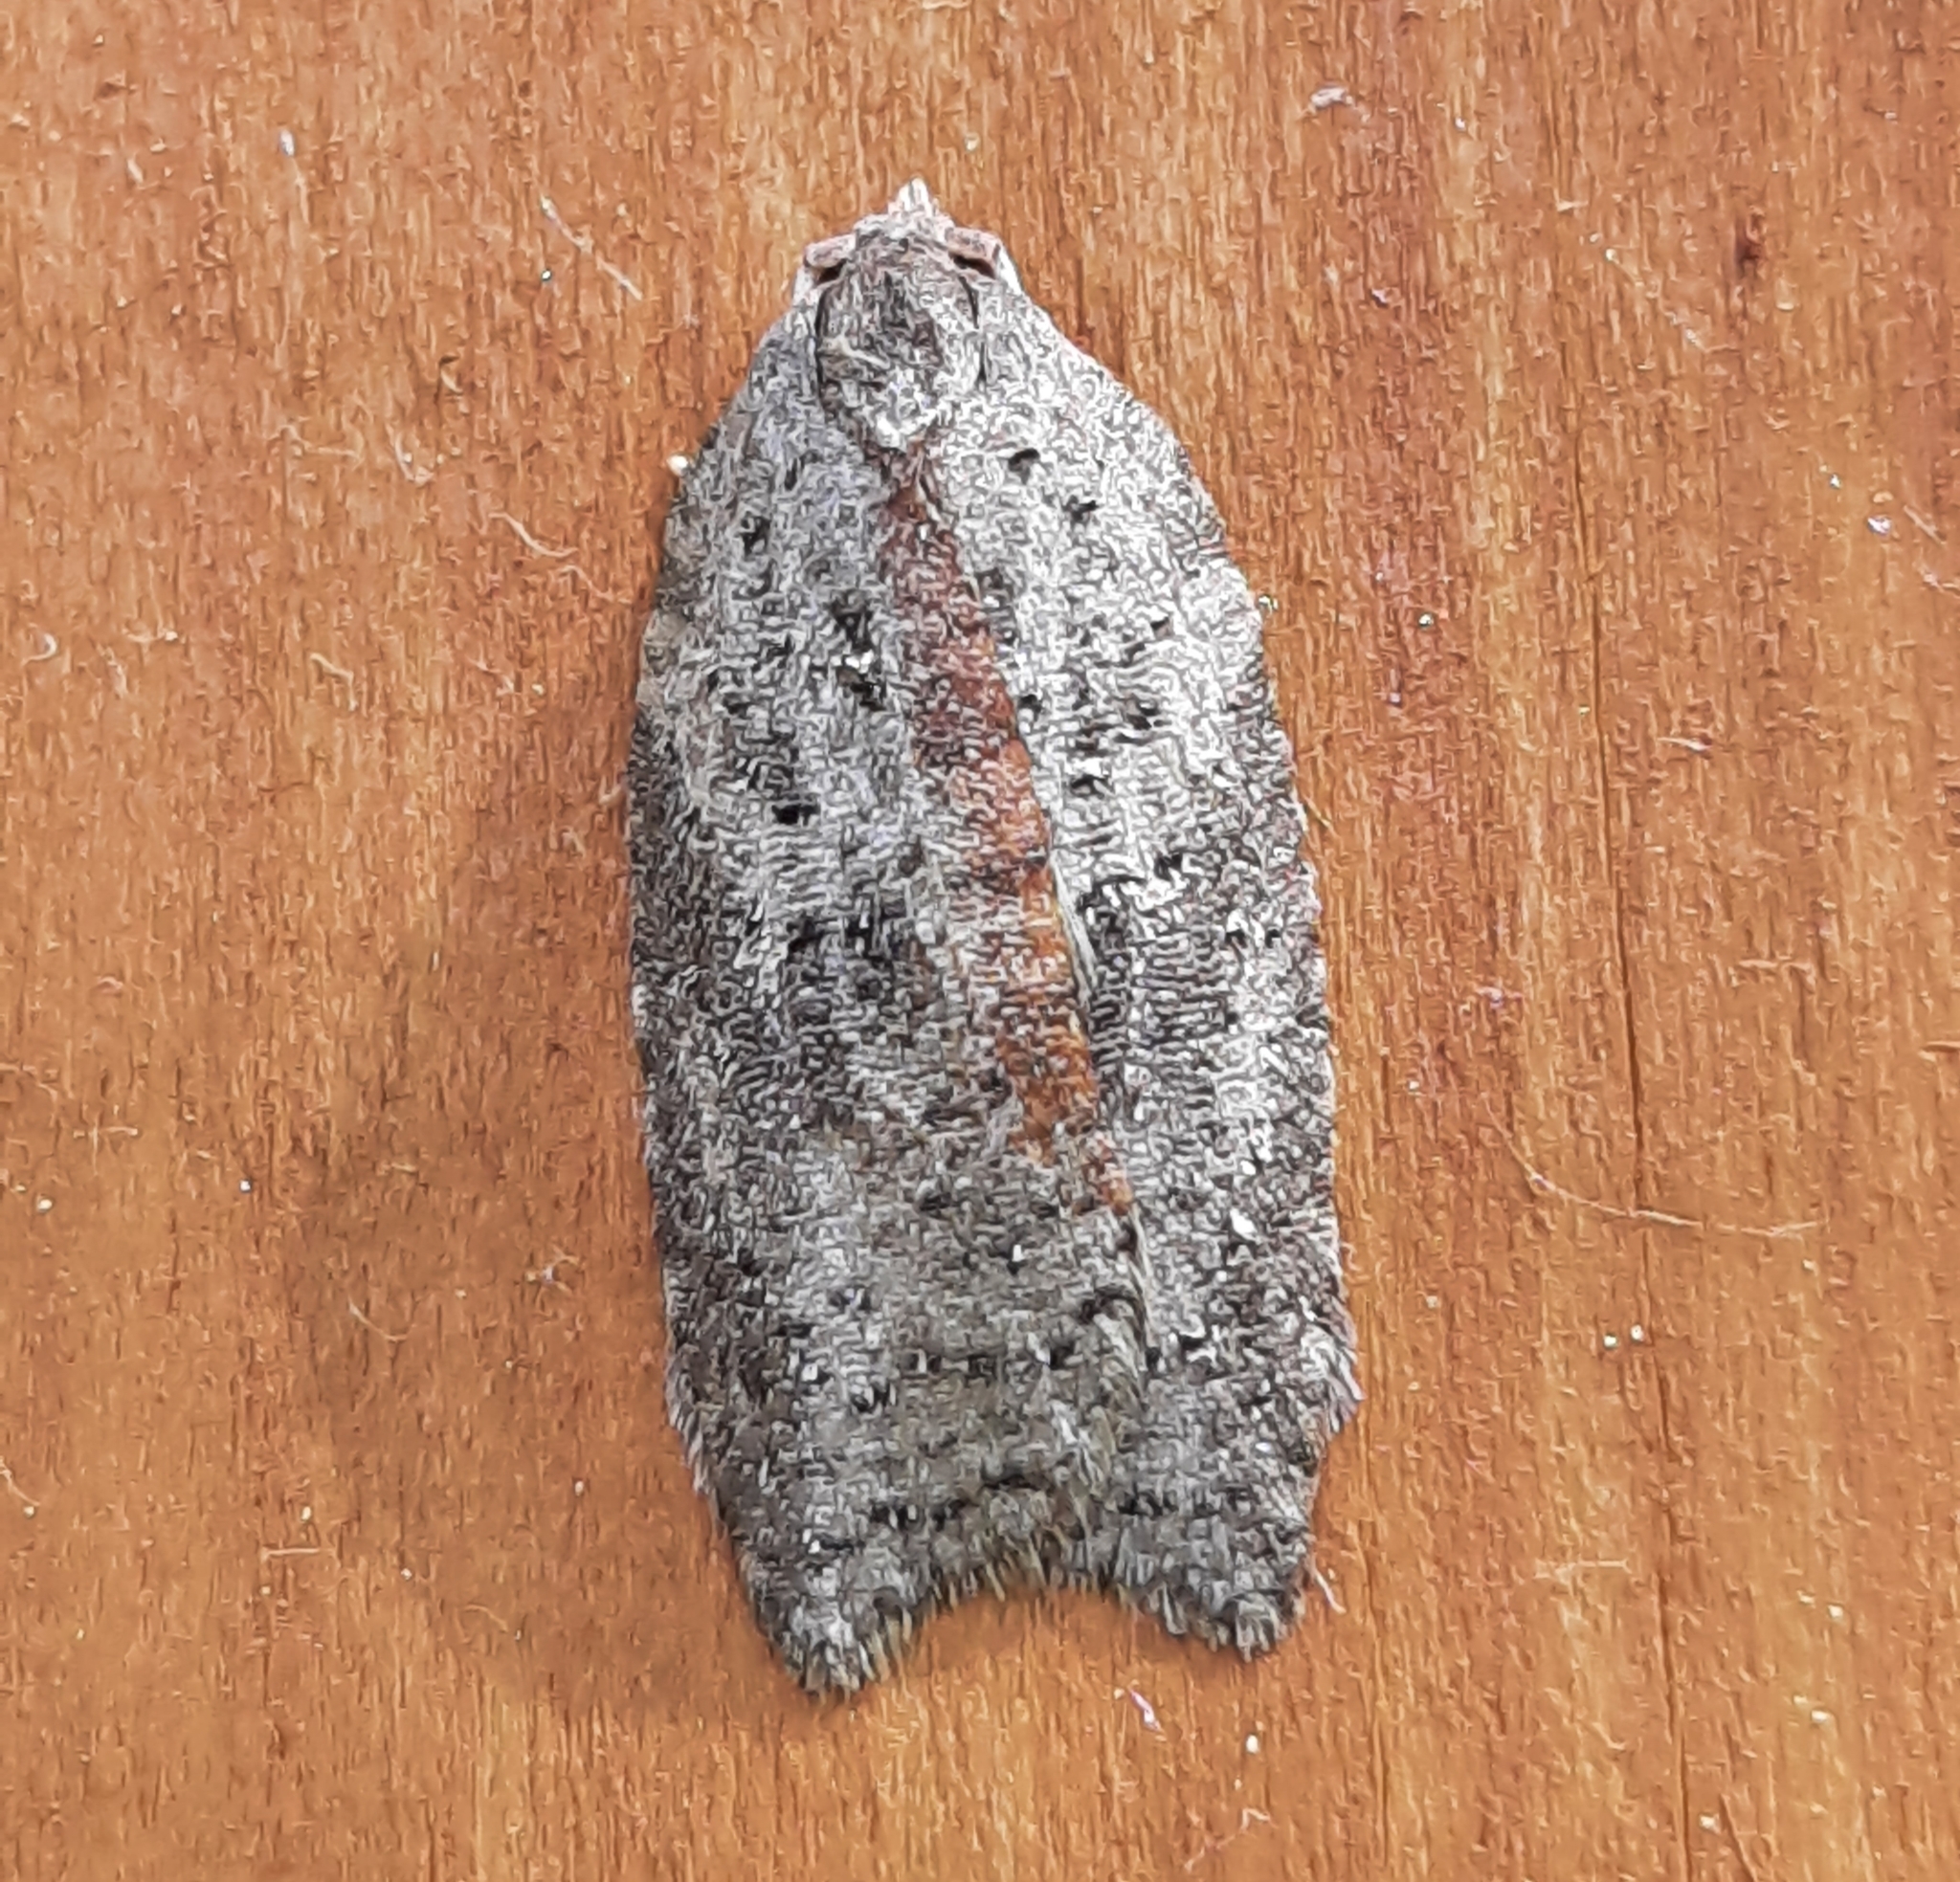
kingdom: Animalia
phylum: Arthropoda
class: Insecta
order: Lepidoptera
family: Tortricidae
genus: Amorbia
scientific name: Amorbia humerosana
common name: White-lined leafroller moth
